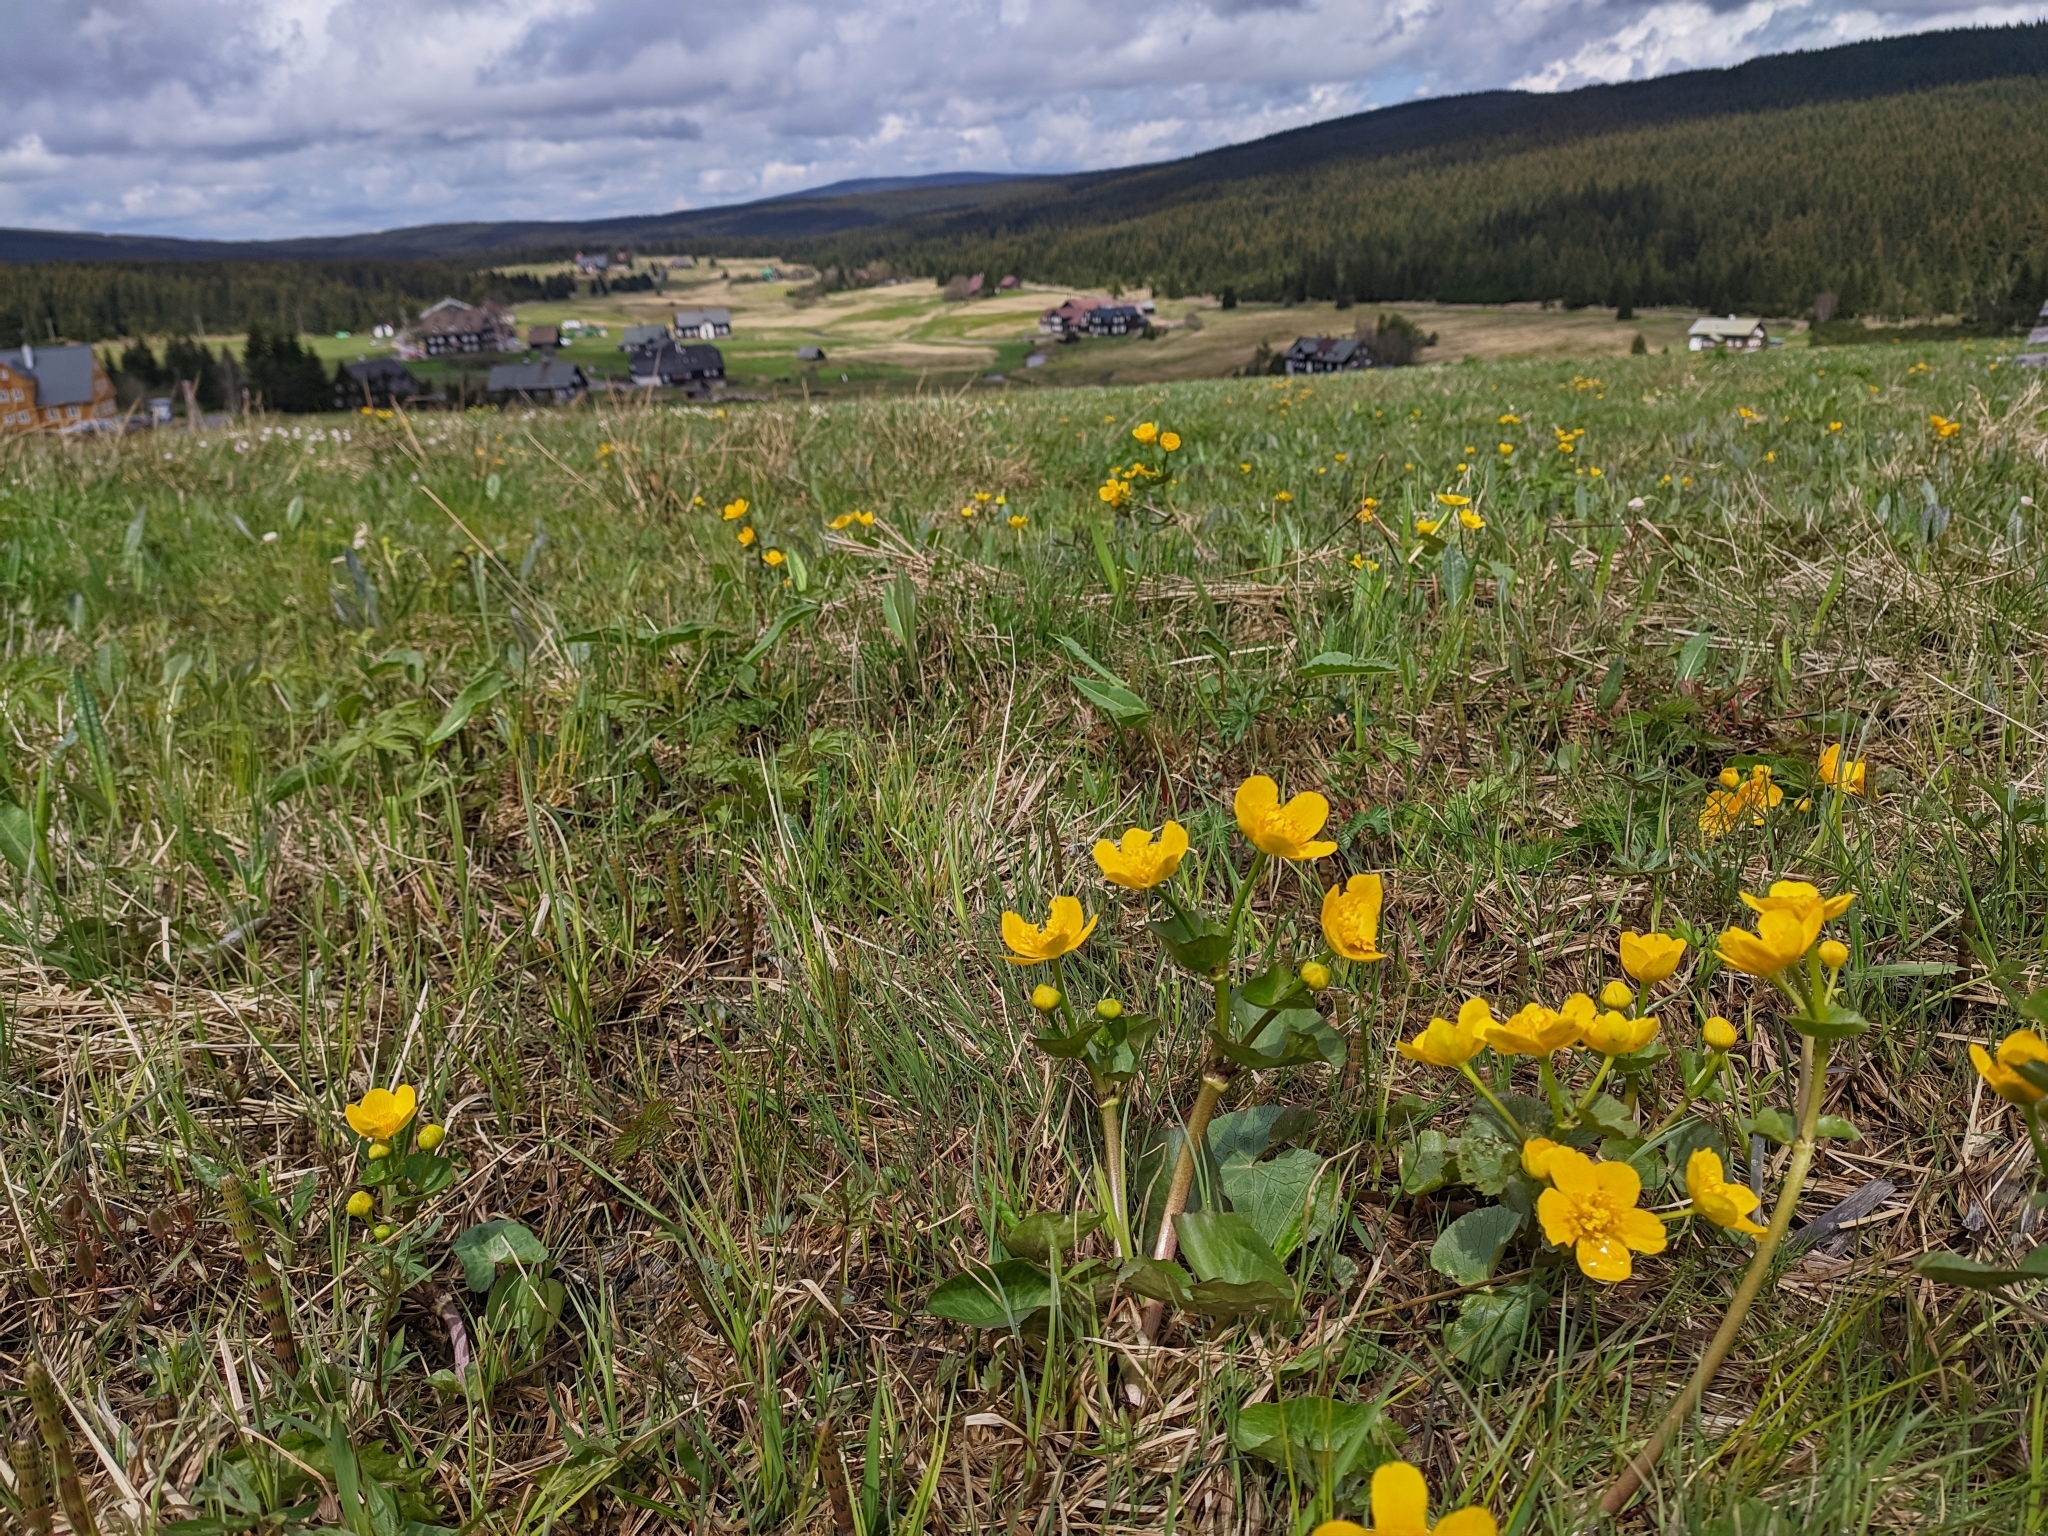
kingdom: Plantae
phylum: Tracheophyta
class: Magnoliopsida
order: Ranunculales
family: Ranunculaceae
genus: Caltha
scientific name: Caltha palustris
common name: Marsh marigold
